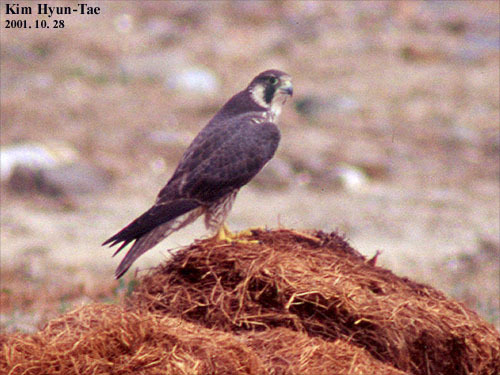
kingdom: Animalia
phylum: Chordata
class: Aves
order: Falconiformes
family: Falconidae
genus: Falco
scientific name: Falco peregrinus
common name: Peregrine falcon
